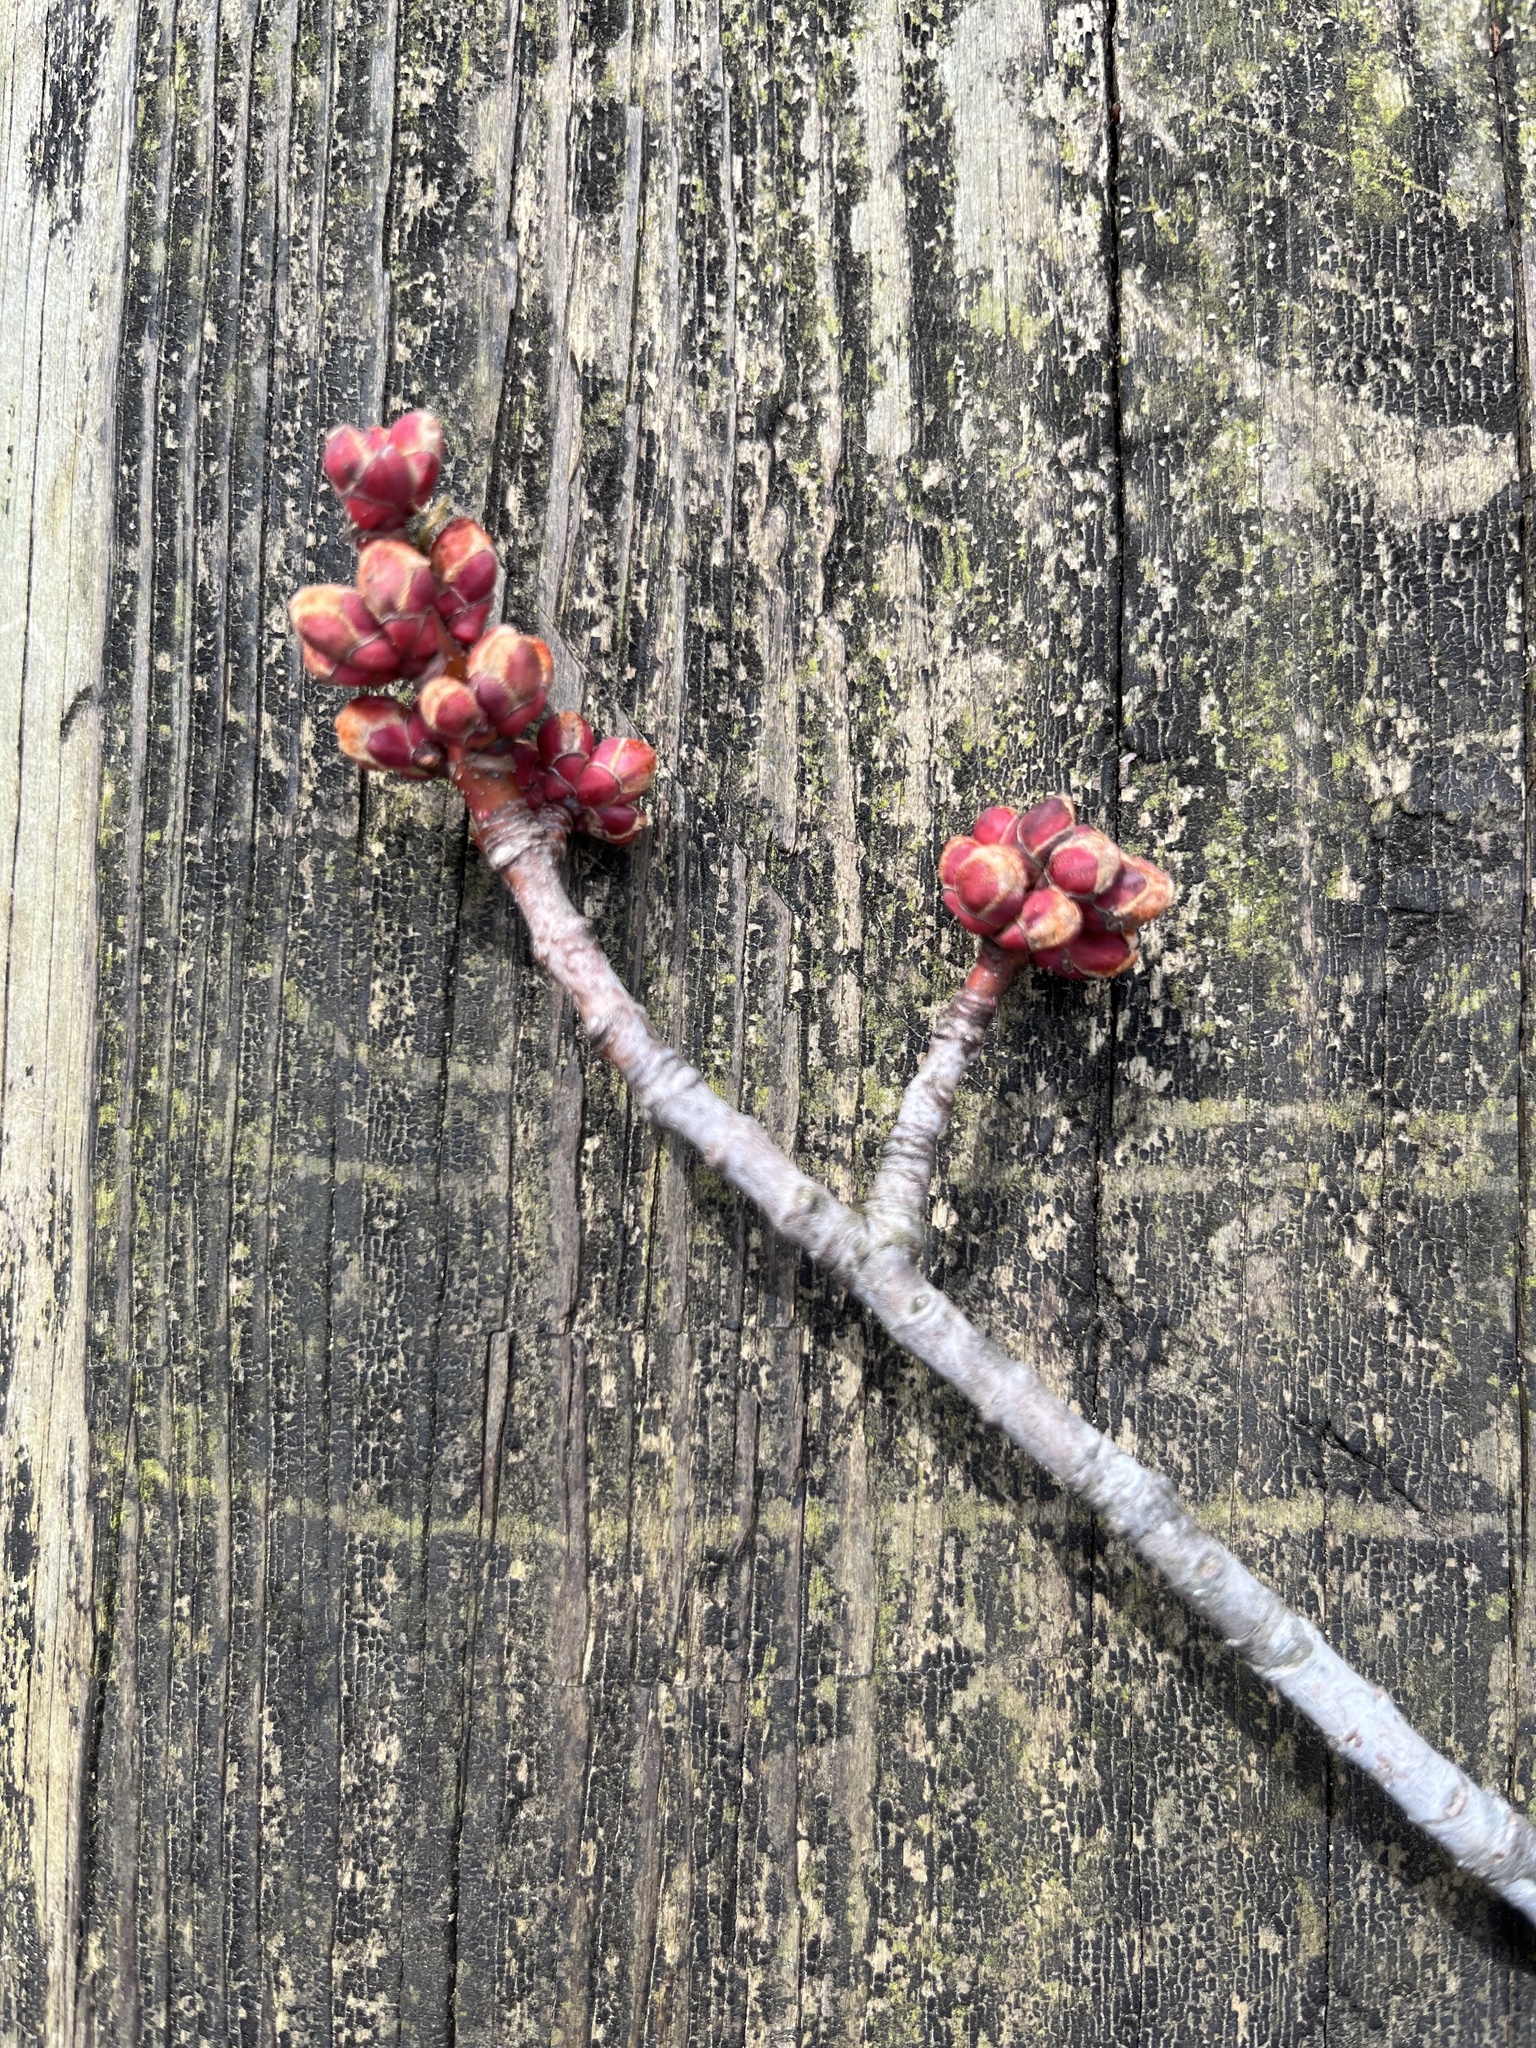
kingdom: Plantae
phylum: Tracheophyta
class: Magnoliopsida
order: Sapindales
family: Sapindaceae
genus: Acer
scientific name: Acer rubrum
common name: Red maple
